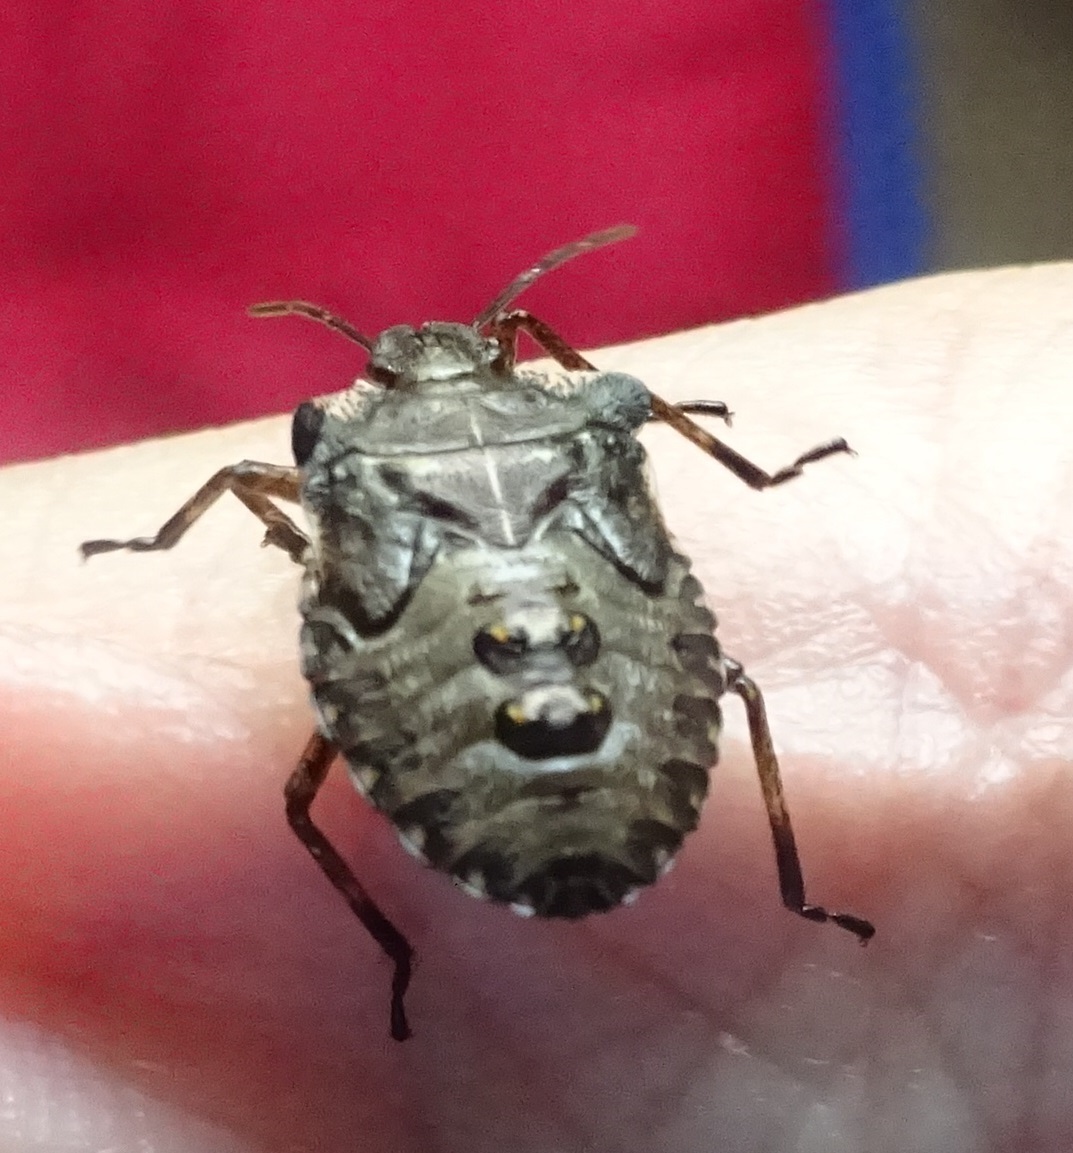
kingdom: Animalia
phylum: Arthropoda
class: Insecta
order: Hemiptera
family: Pentatomidae
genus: Pentatoma
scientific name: Pentatoma rufipes
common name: Forest bug
